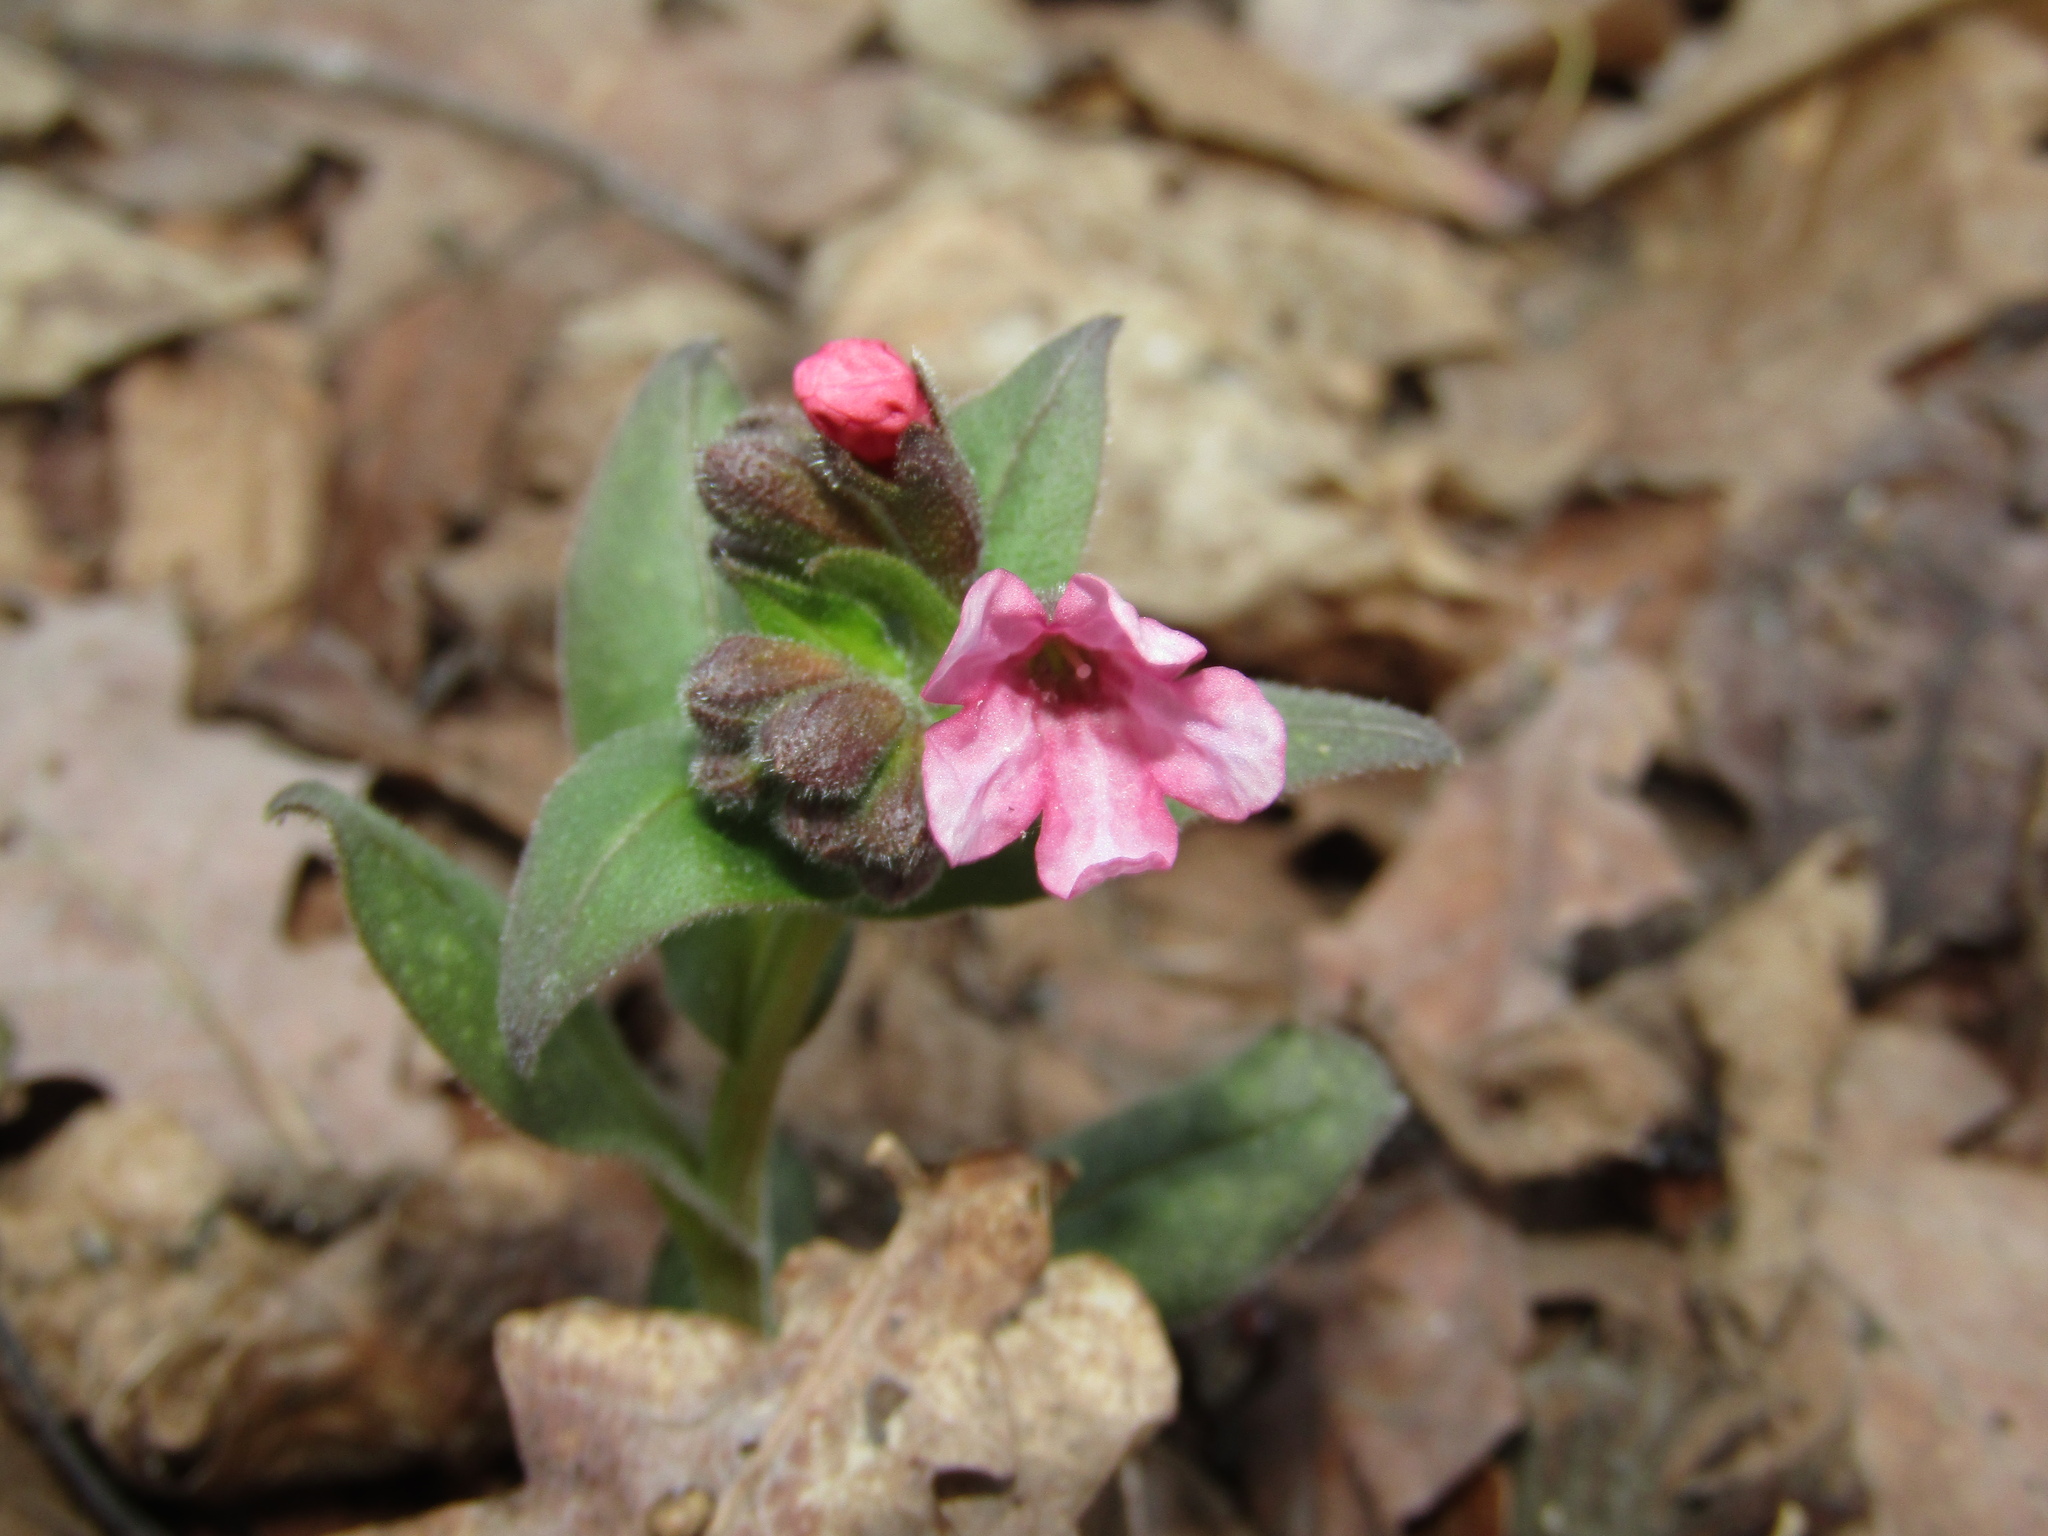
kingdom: Plantae
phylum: Tracheophyta
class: Magnoliopsida
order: Boraginales
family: Boraginaceae
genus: Pulmonaria
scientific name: Pulmonaria obscura
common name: Suffolk lungwort
